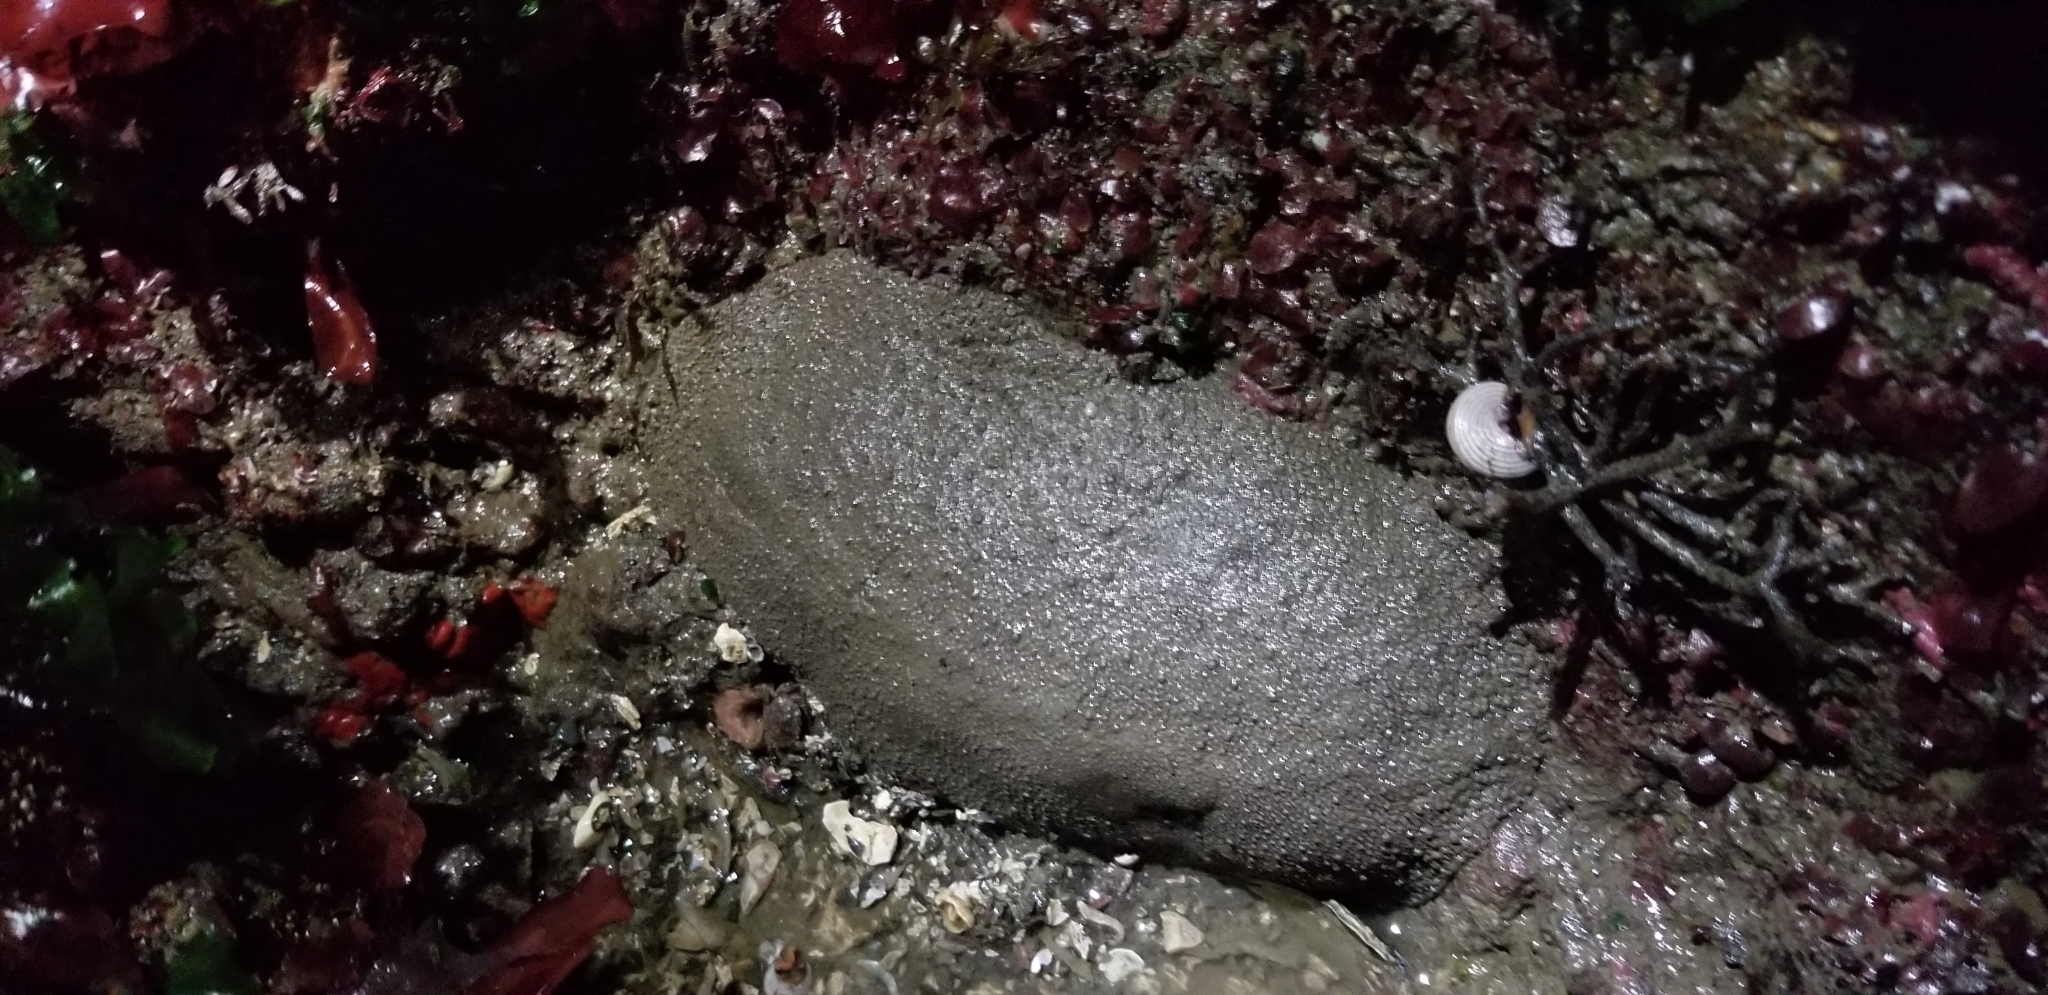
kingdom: Animalia
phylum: Mollusca
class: Polyplacophora
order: Chitonida
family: Acanthochitonidae
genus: Cryptochiton
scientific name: Cryptochiton stelleri
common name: Giant pacific chiton
